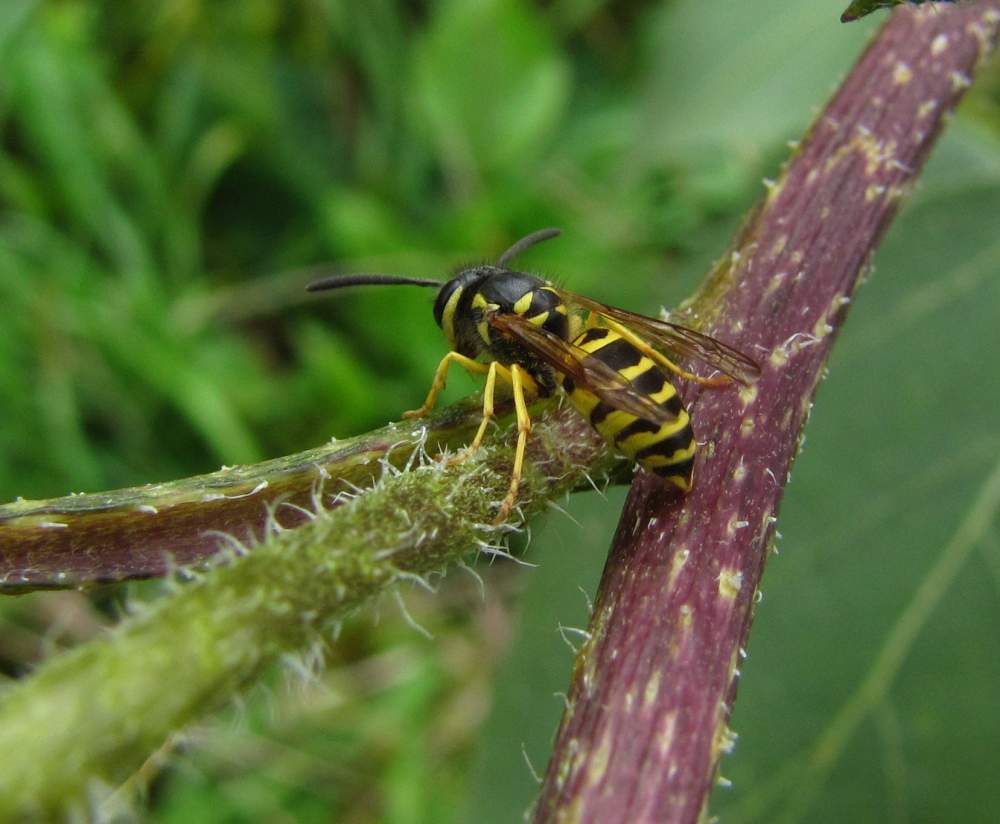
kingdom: Animalia
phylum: Arthropoda
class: Insecta
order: Hymenoptera
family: Vespidae
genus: Vespula
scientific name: Vespula maculifrons
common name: Eastern yellowjacket
